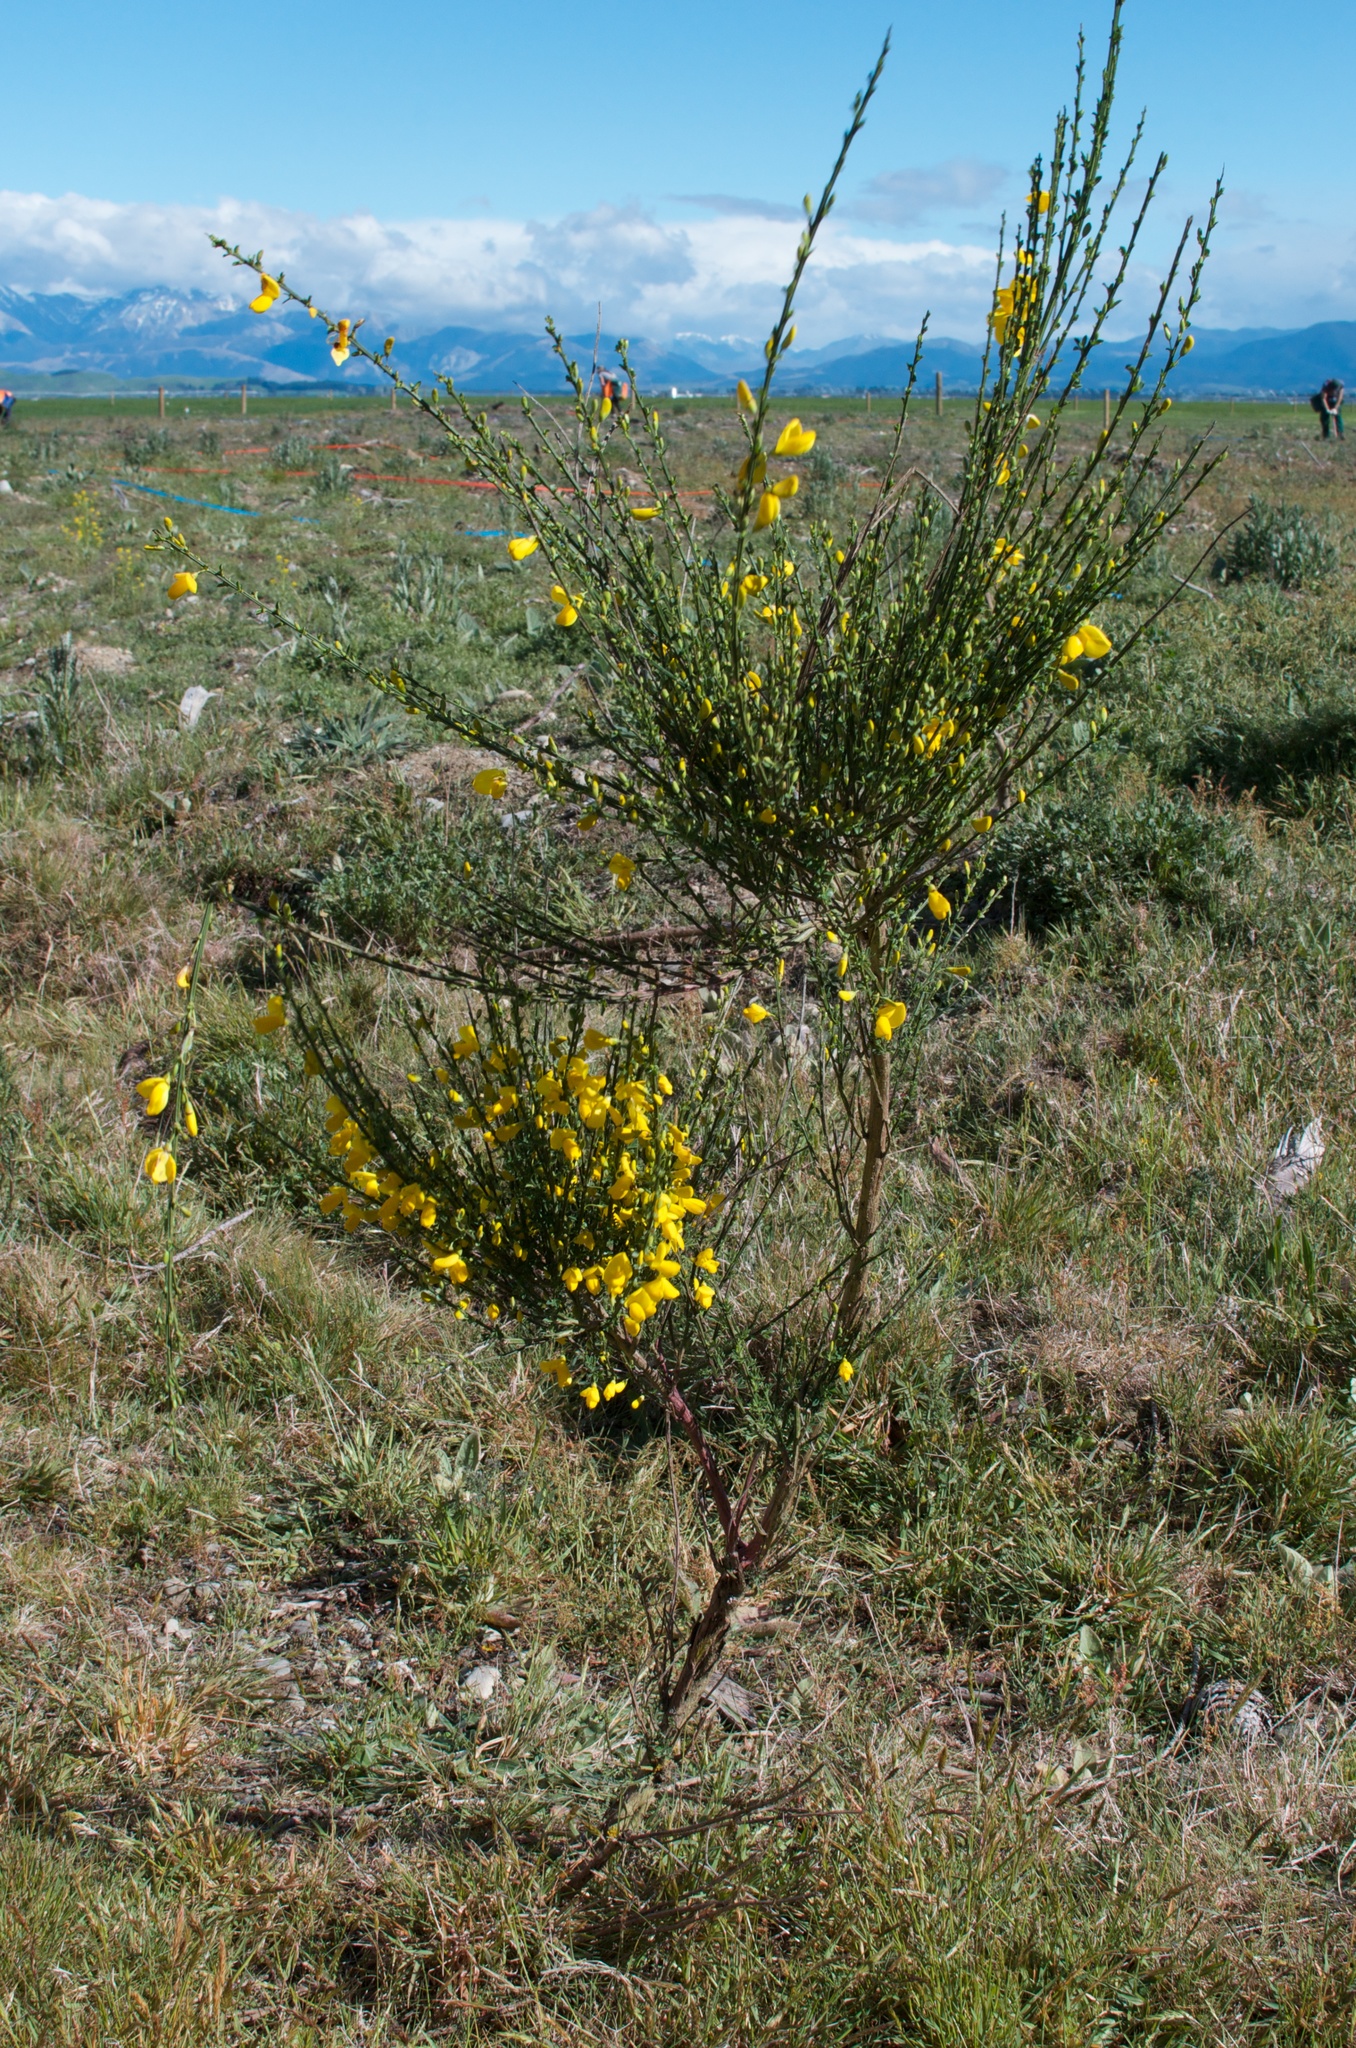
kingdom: Plantae
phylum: Tracheophyta
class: Magnoliopsida
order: Fabales
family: Fabaceae
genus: Cytisus
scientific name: Cytisus scoparius
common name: Scotch broom
